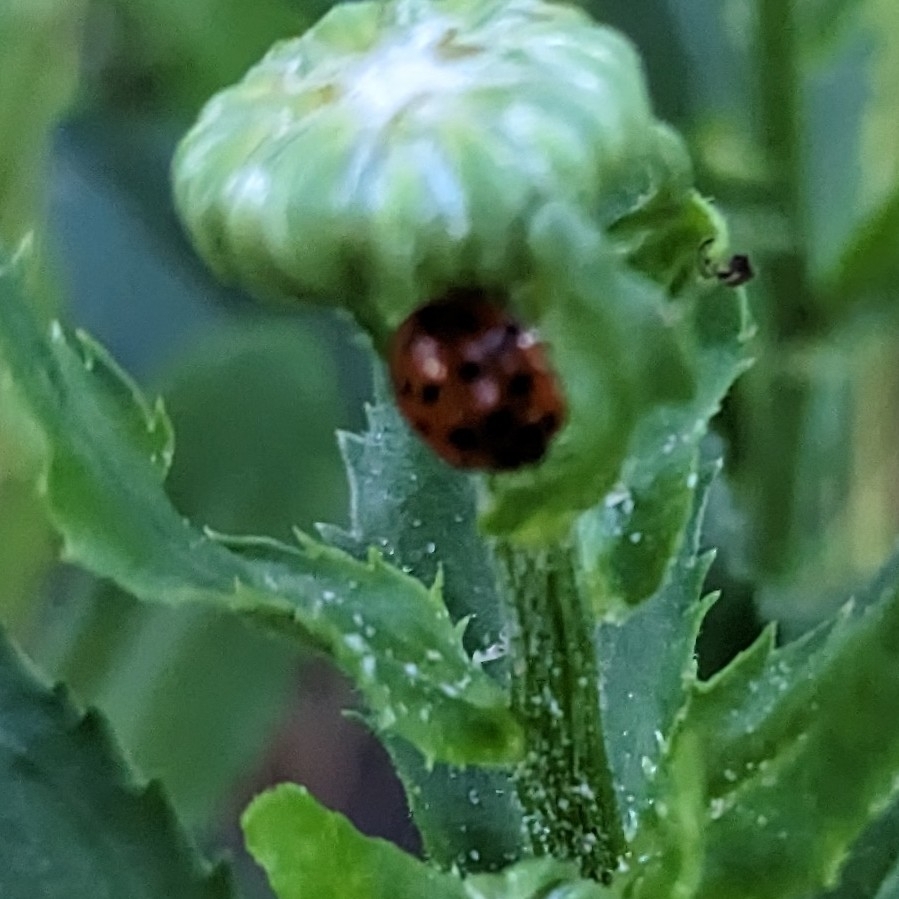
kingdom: Animalia
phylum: Arthropoda
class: Insecta
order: Coleoptera
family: Coccinellidae
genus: Harmonia
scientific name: Harmonia axyridis
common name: Harlequin ladybird
